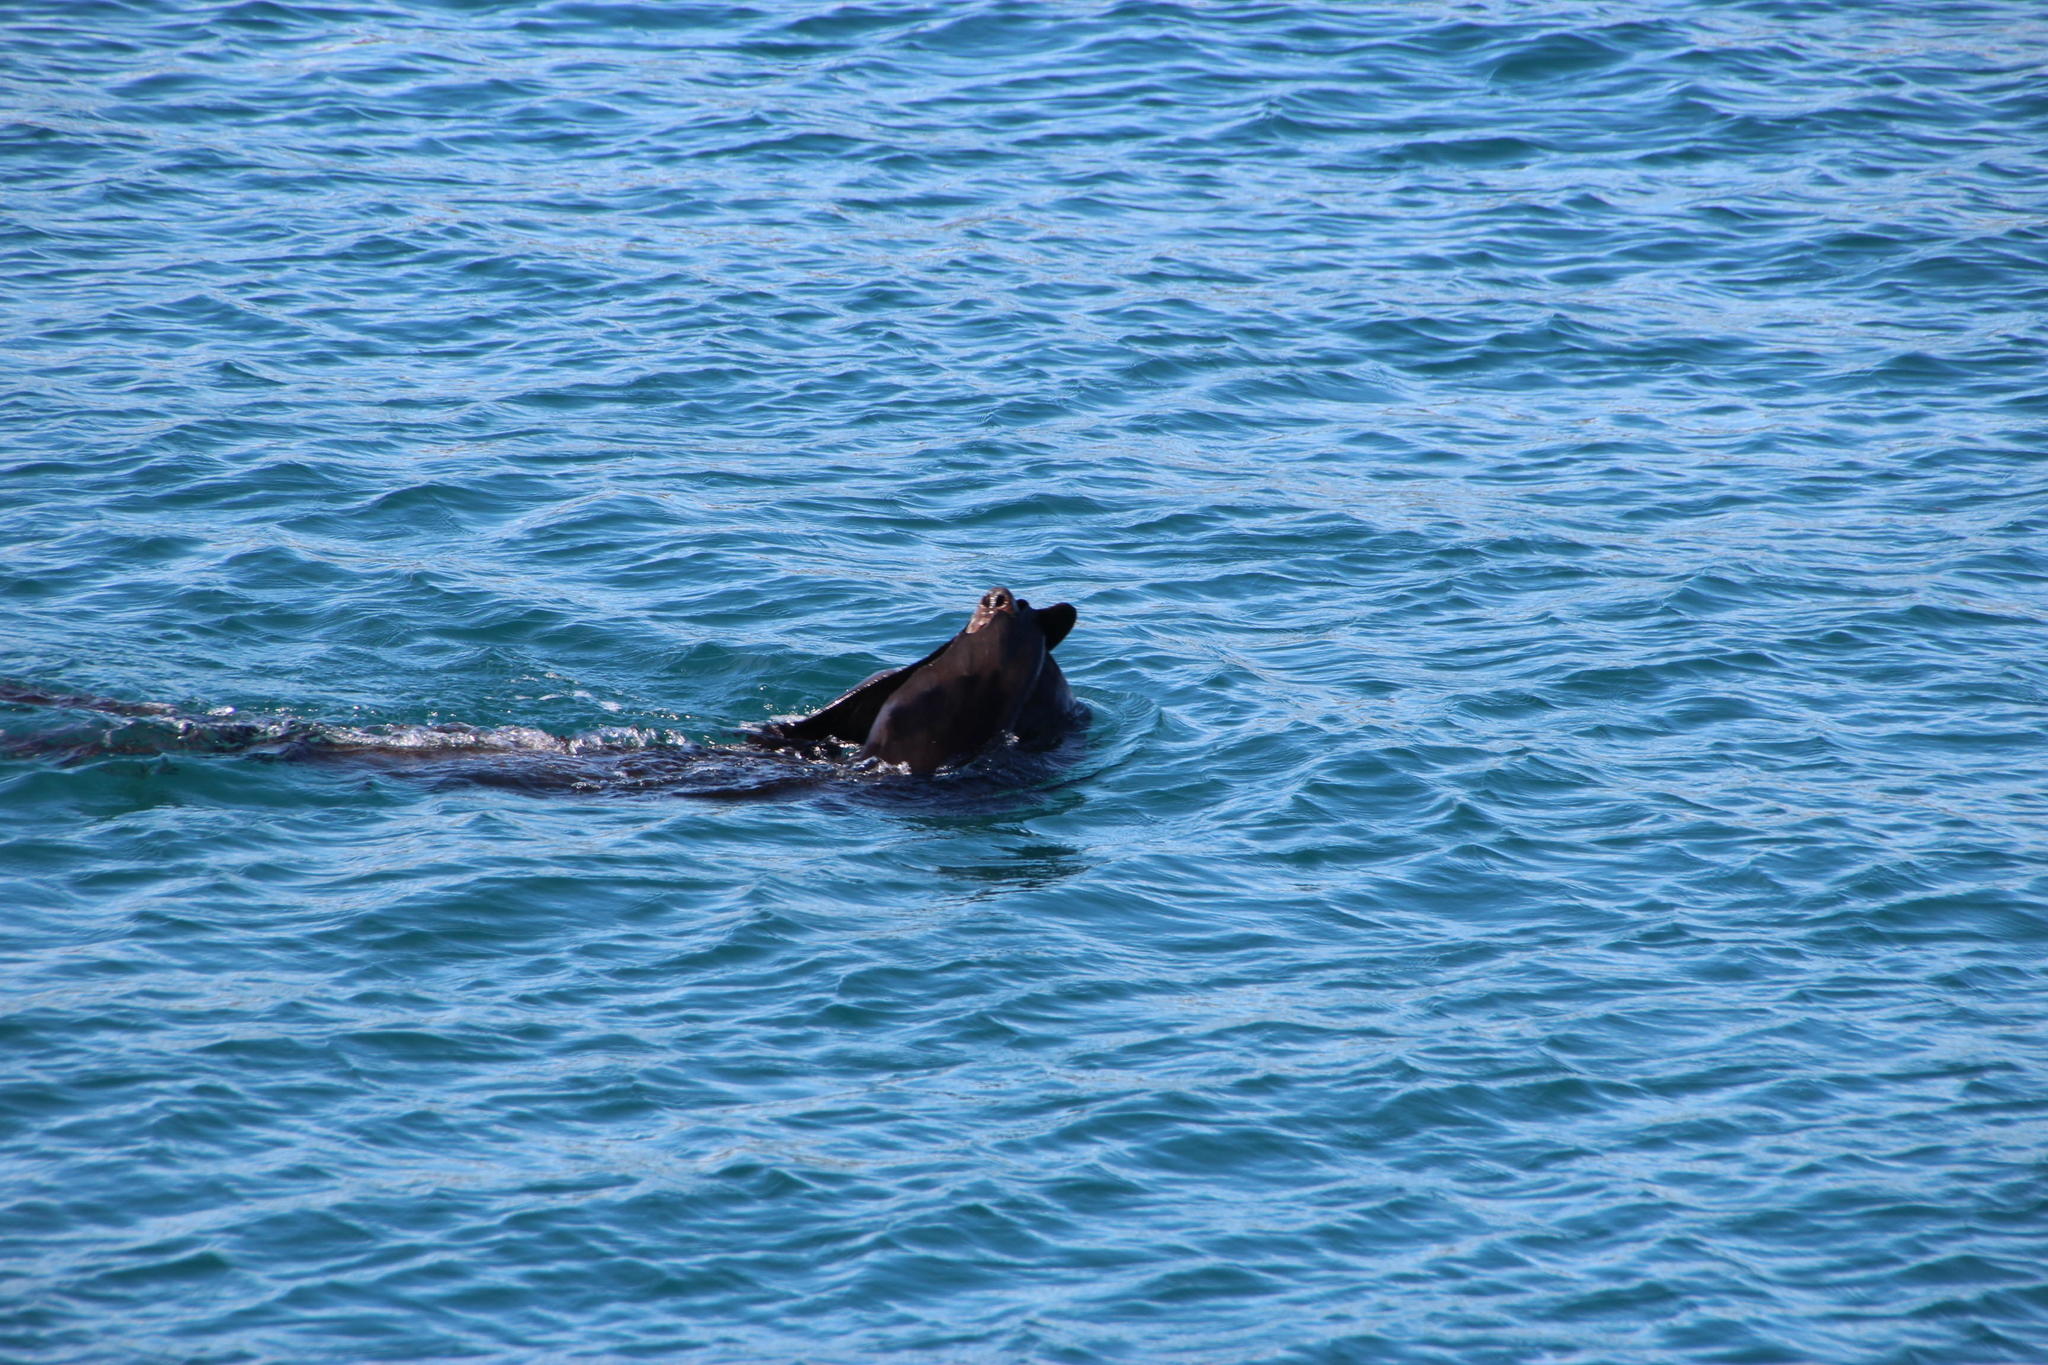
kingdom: Animalia
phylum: Chordata
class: Mammalia
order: Carnivora
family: Otariidae
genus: Arctocephalus
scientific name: Arctocephalus pusillus
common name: Brown fur seal
